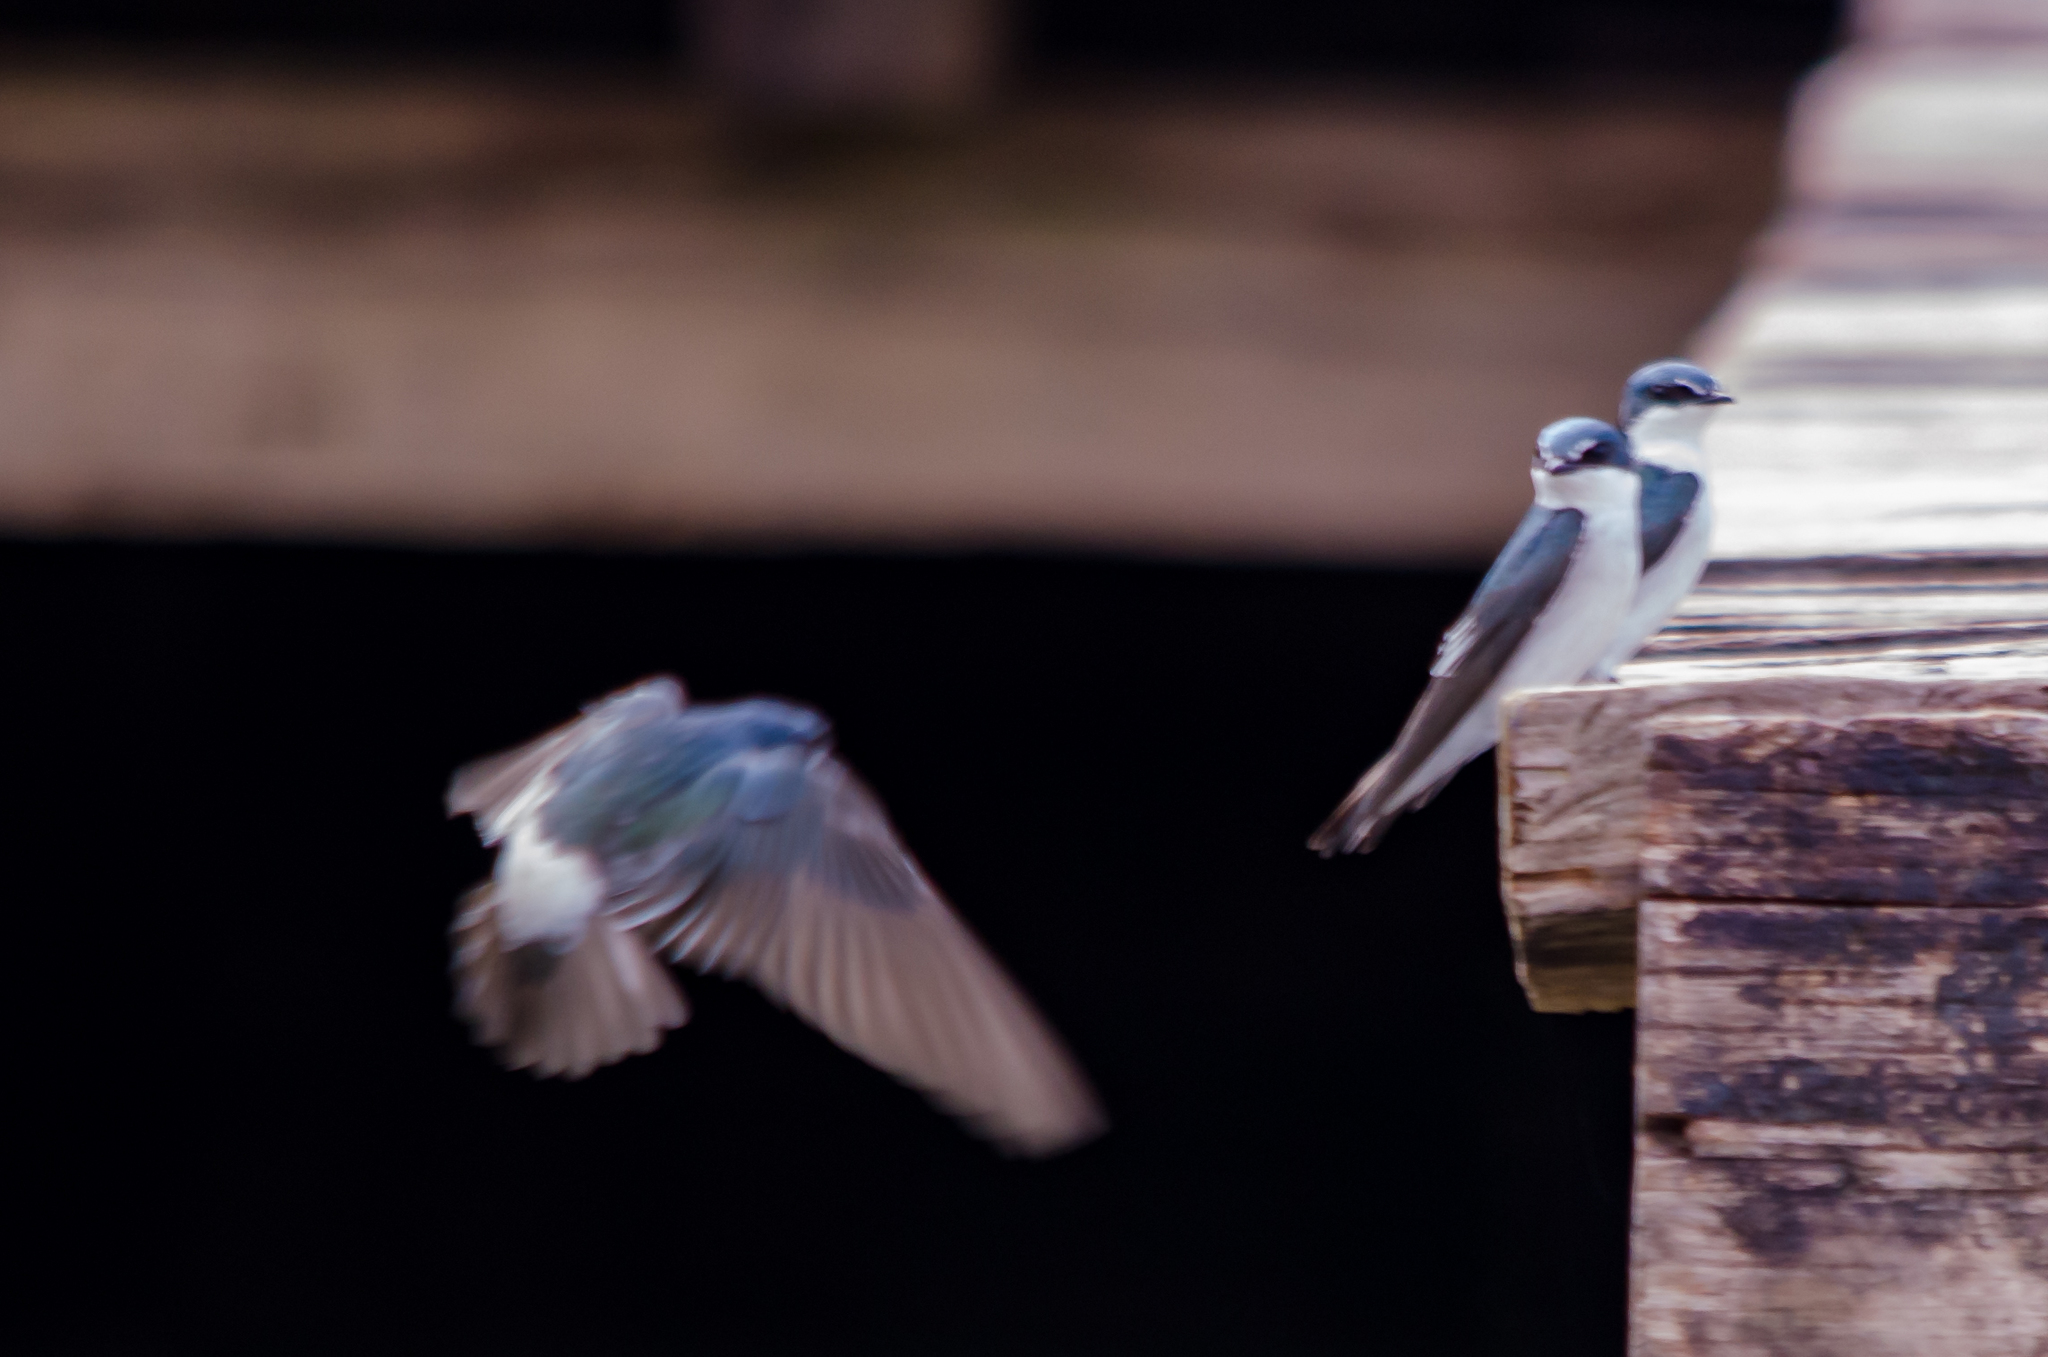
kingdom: Animalia
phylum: Chordata
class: Aves
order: Passeriformes
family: Hirundinidae
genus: Tachycineta
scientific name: Tachycineta albilinea
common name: Mangrove swallow
